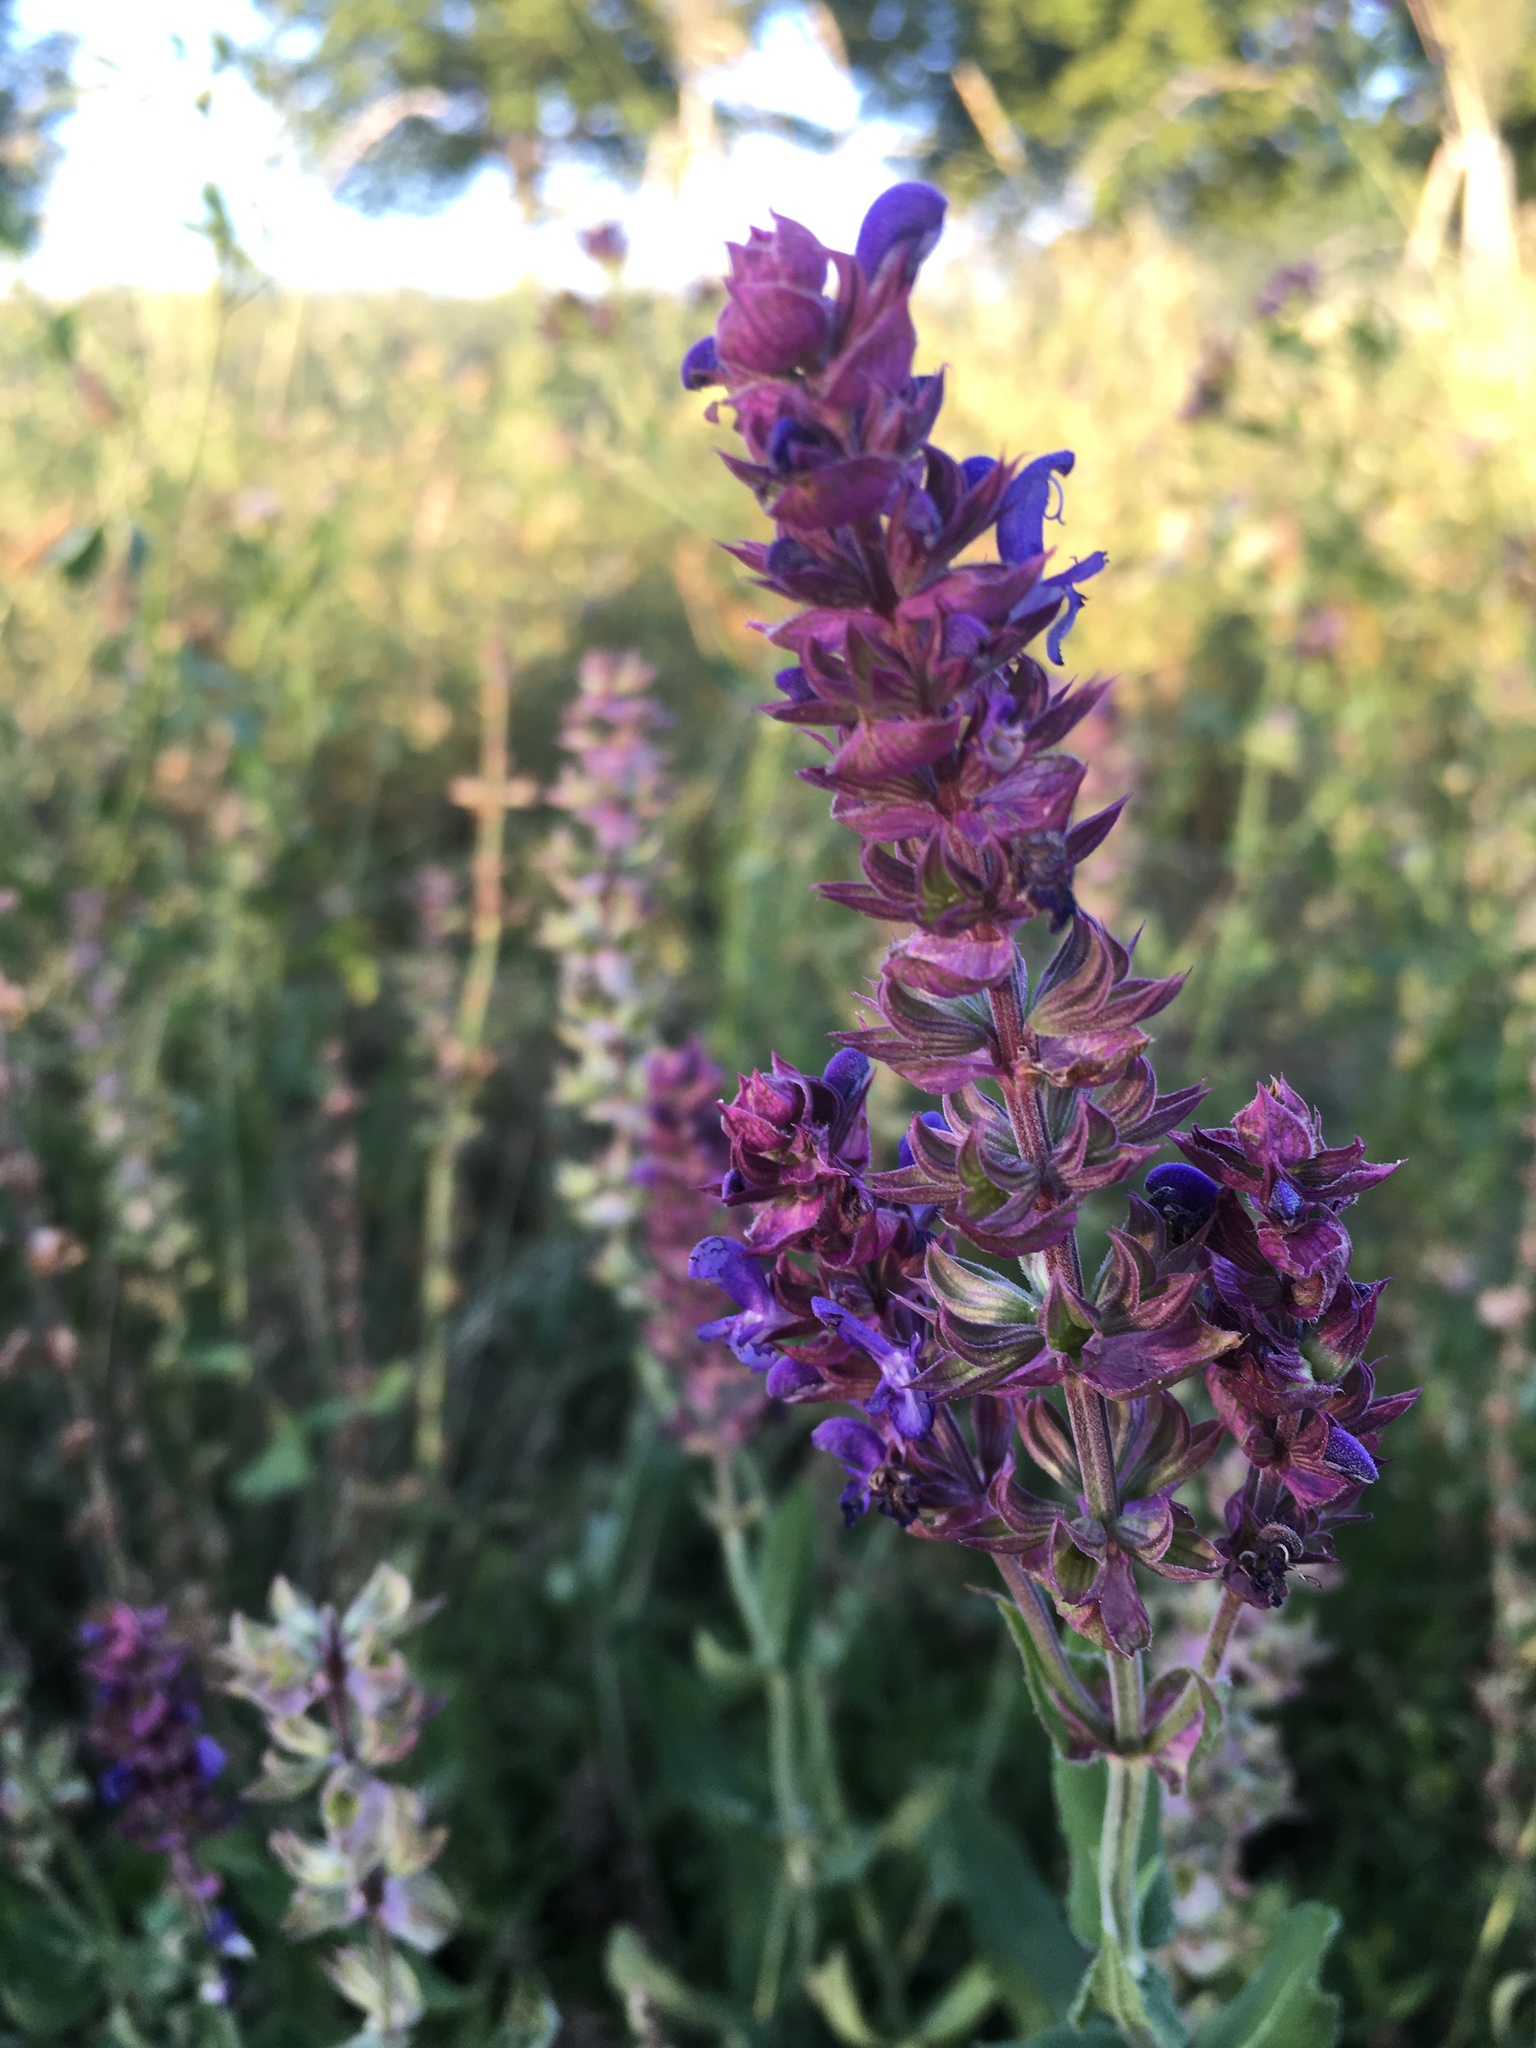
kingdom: Plantae
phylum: Tracheophyta
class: Magnoliopsida
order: Lamiales
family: Lamiaceae
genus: Salvia
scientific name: Salvia nemorosa
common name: Balkan clary
